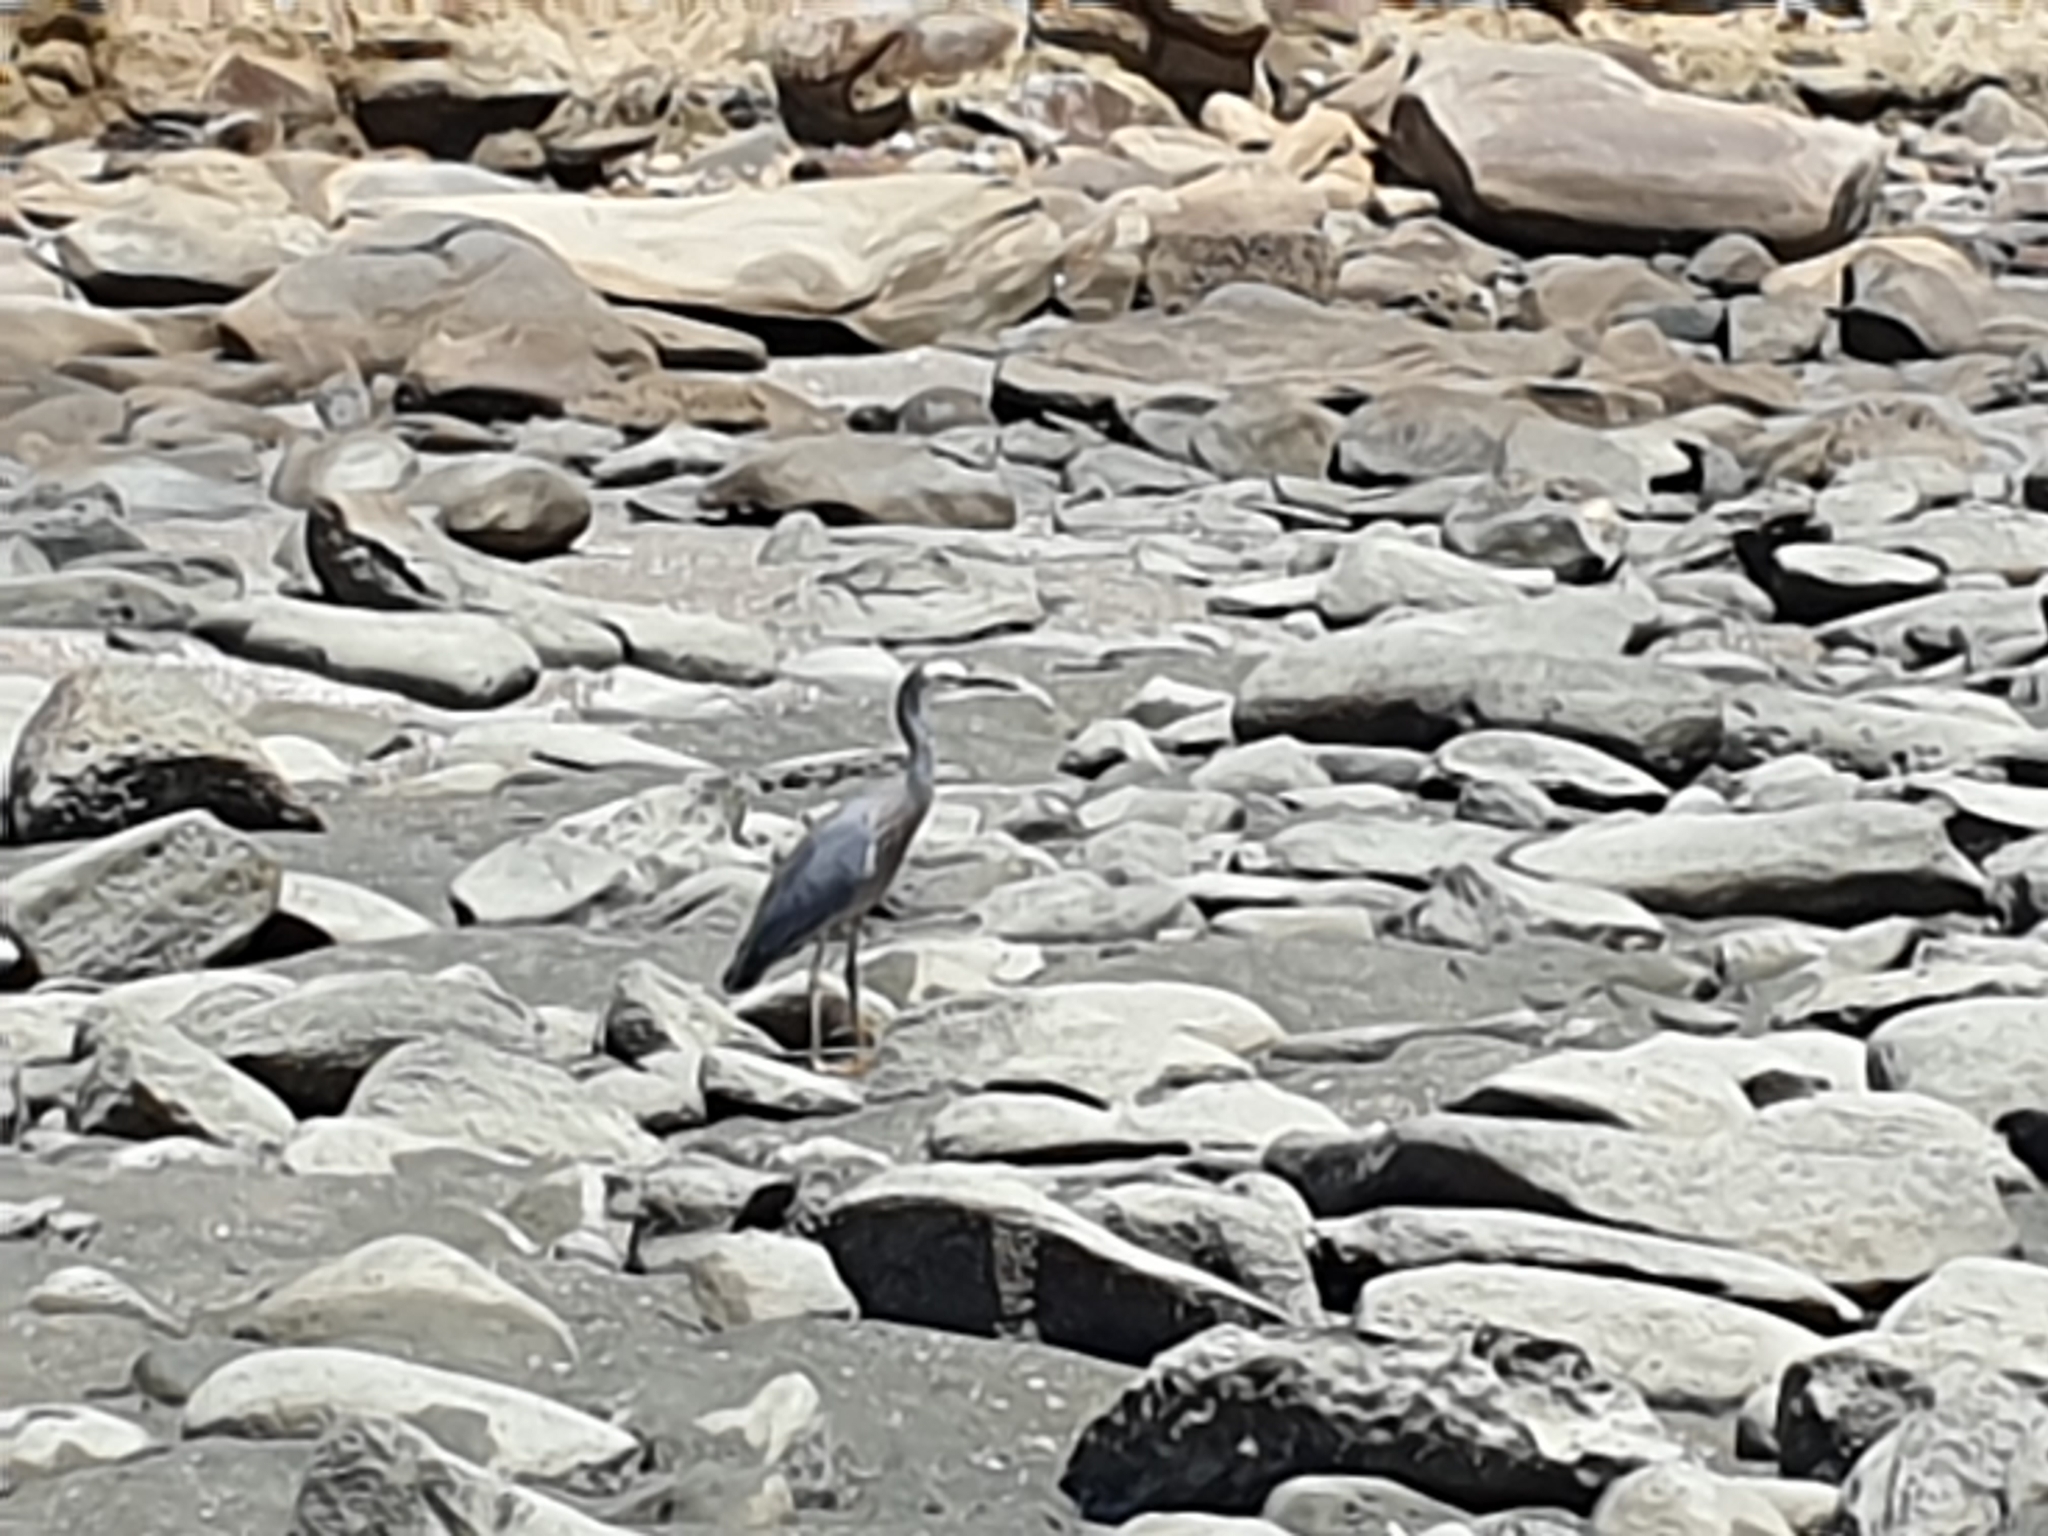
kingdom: Animalia
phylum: Chordata
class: Aves
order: Pelecaniformes
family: Ardeidae
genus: Egretta
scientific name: Egretta novaehollandiae
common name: White-faced heron
